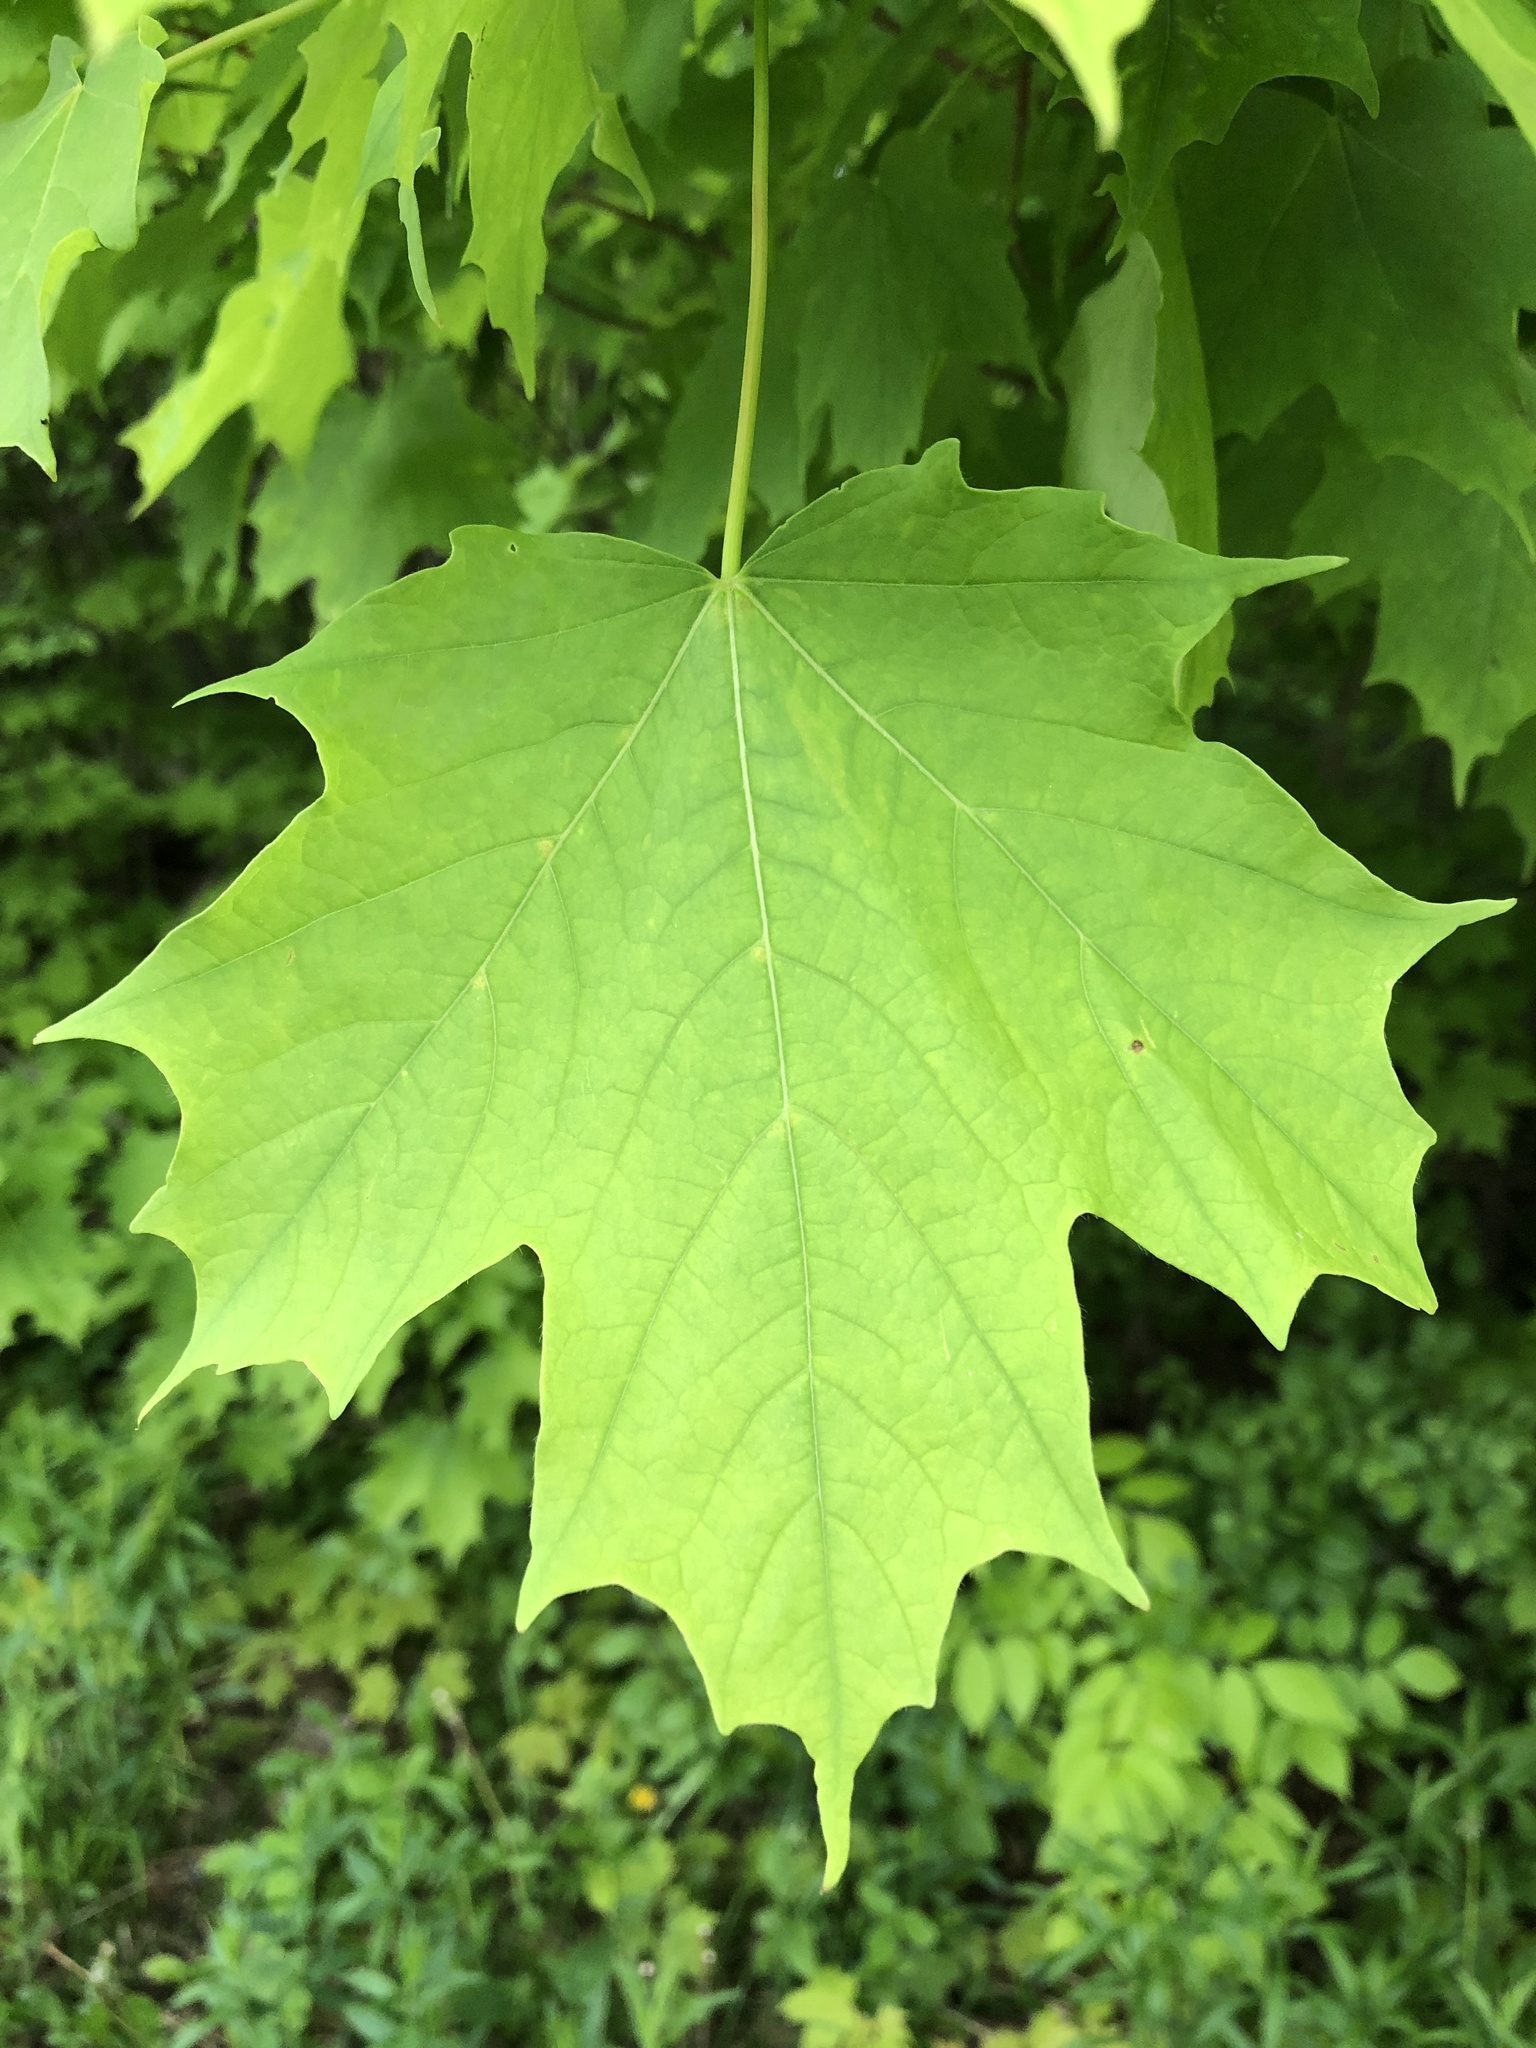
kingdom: Plantae
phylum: Tracheophyta
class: Magnoliopsida
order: Sapindales
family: Sapindaceae
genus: Acer
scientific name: Acer saccharum
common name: Sugar maple
